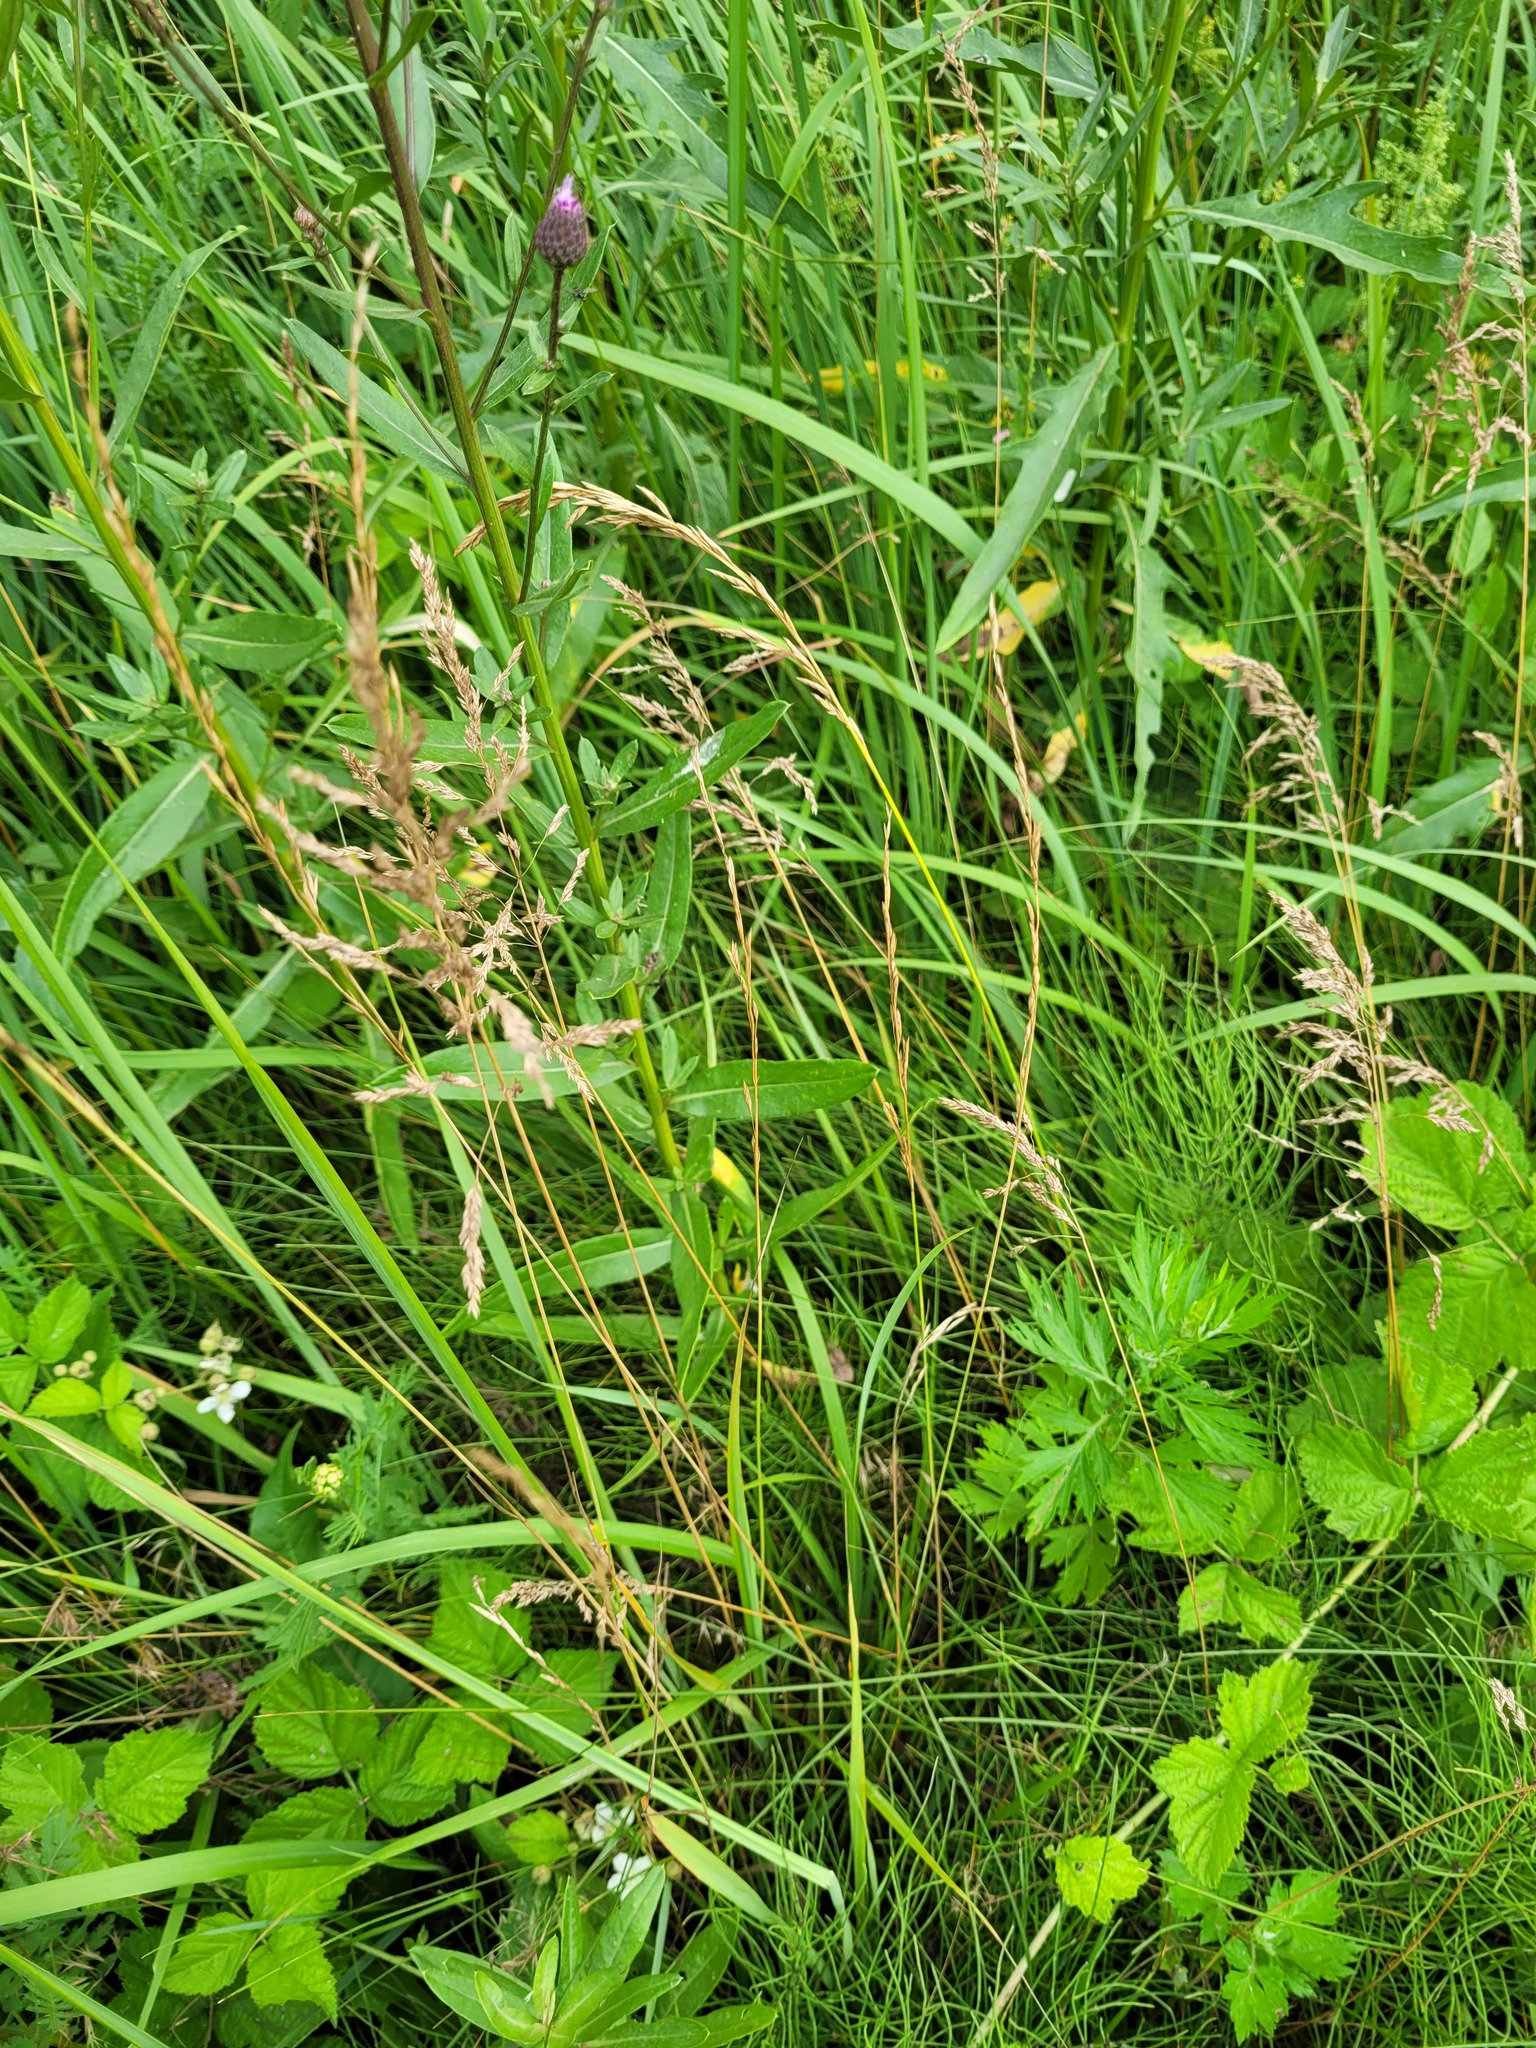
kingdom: Plantae
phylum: Tracheophyta
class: Liliopsida
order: Poales
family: Poaceae
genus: Poa
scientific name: Poa angustifolia
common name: Narrow-leaved meadow-grass
